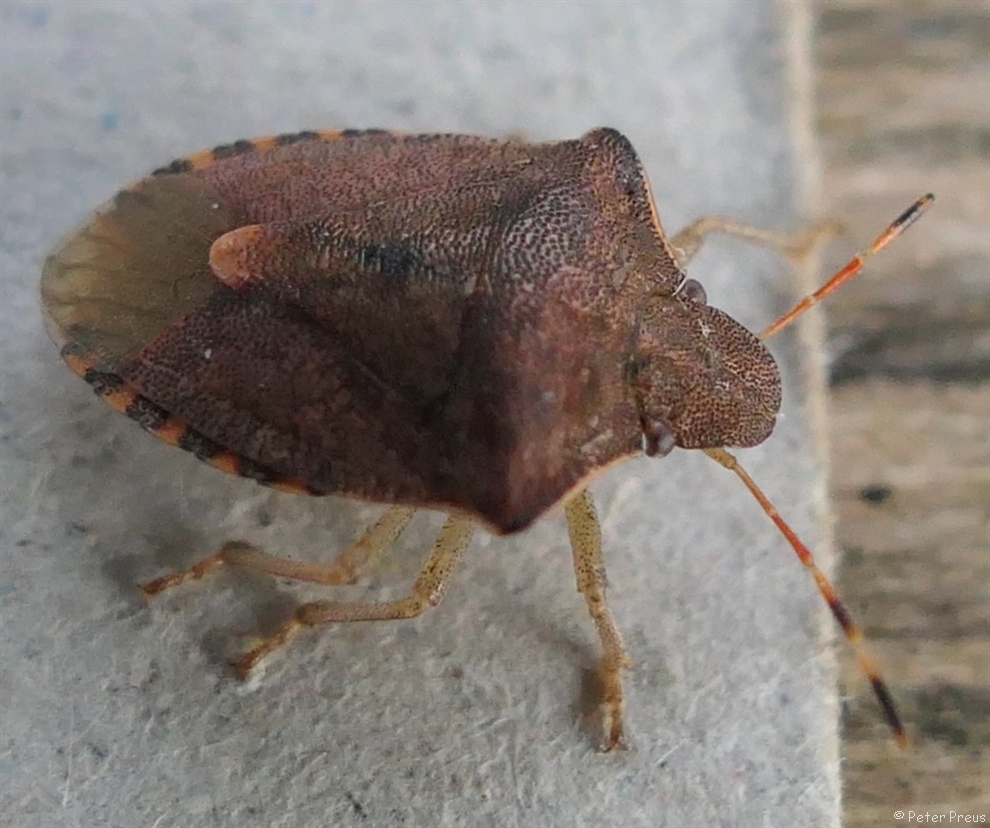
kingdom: Animalia
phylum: Arthropoda
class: Insecta
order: Hemiptera
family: Pentatomidae
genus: Holcostethus
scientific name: Holcostethus strictus
